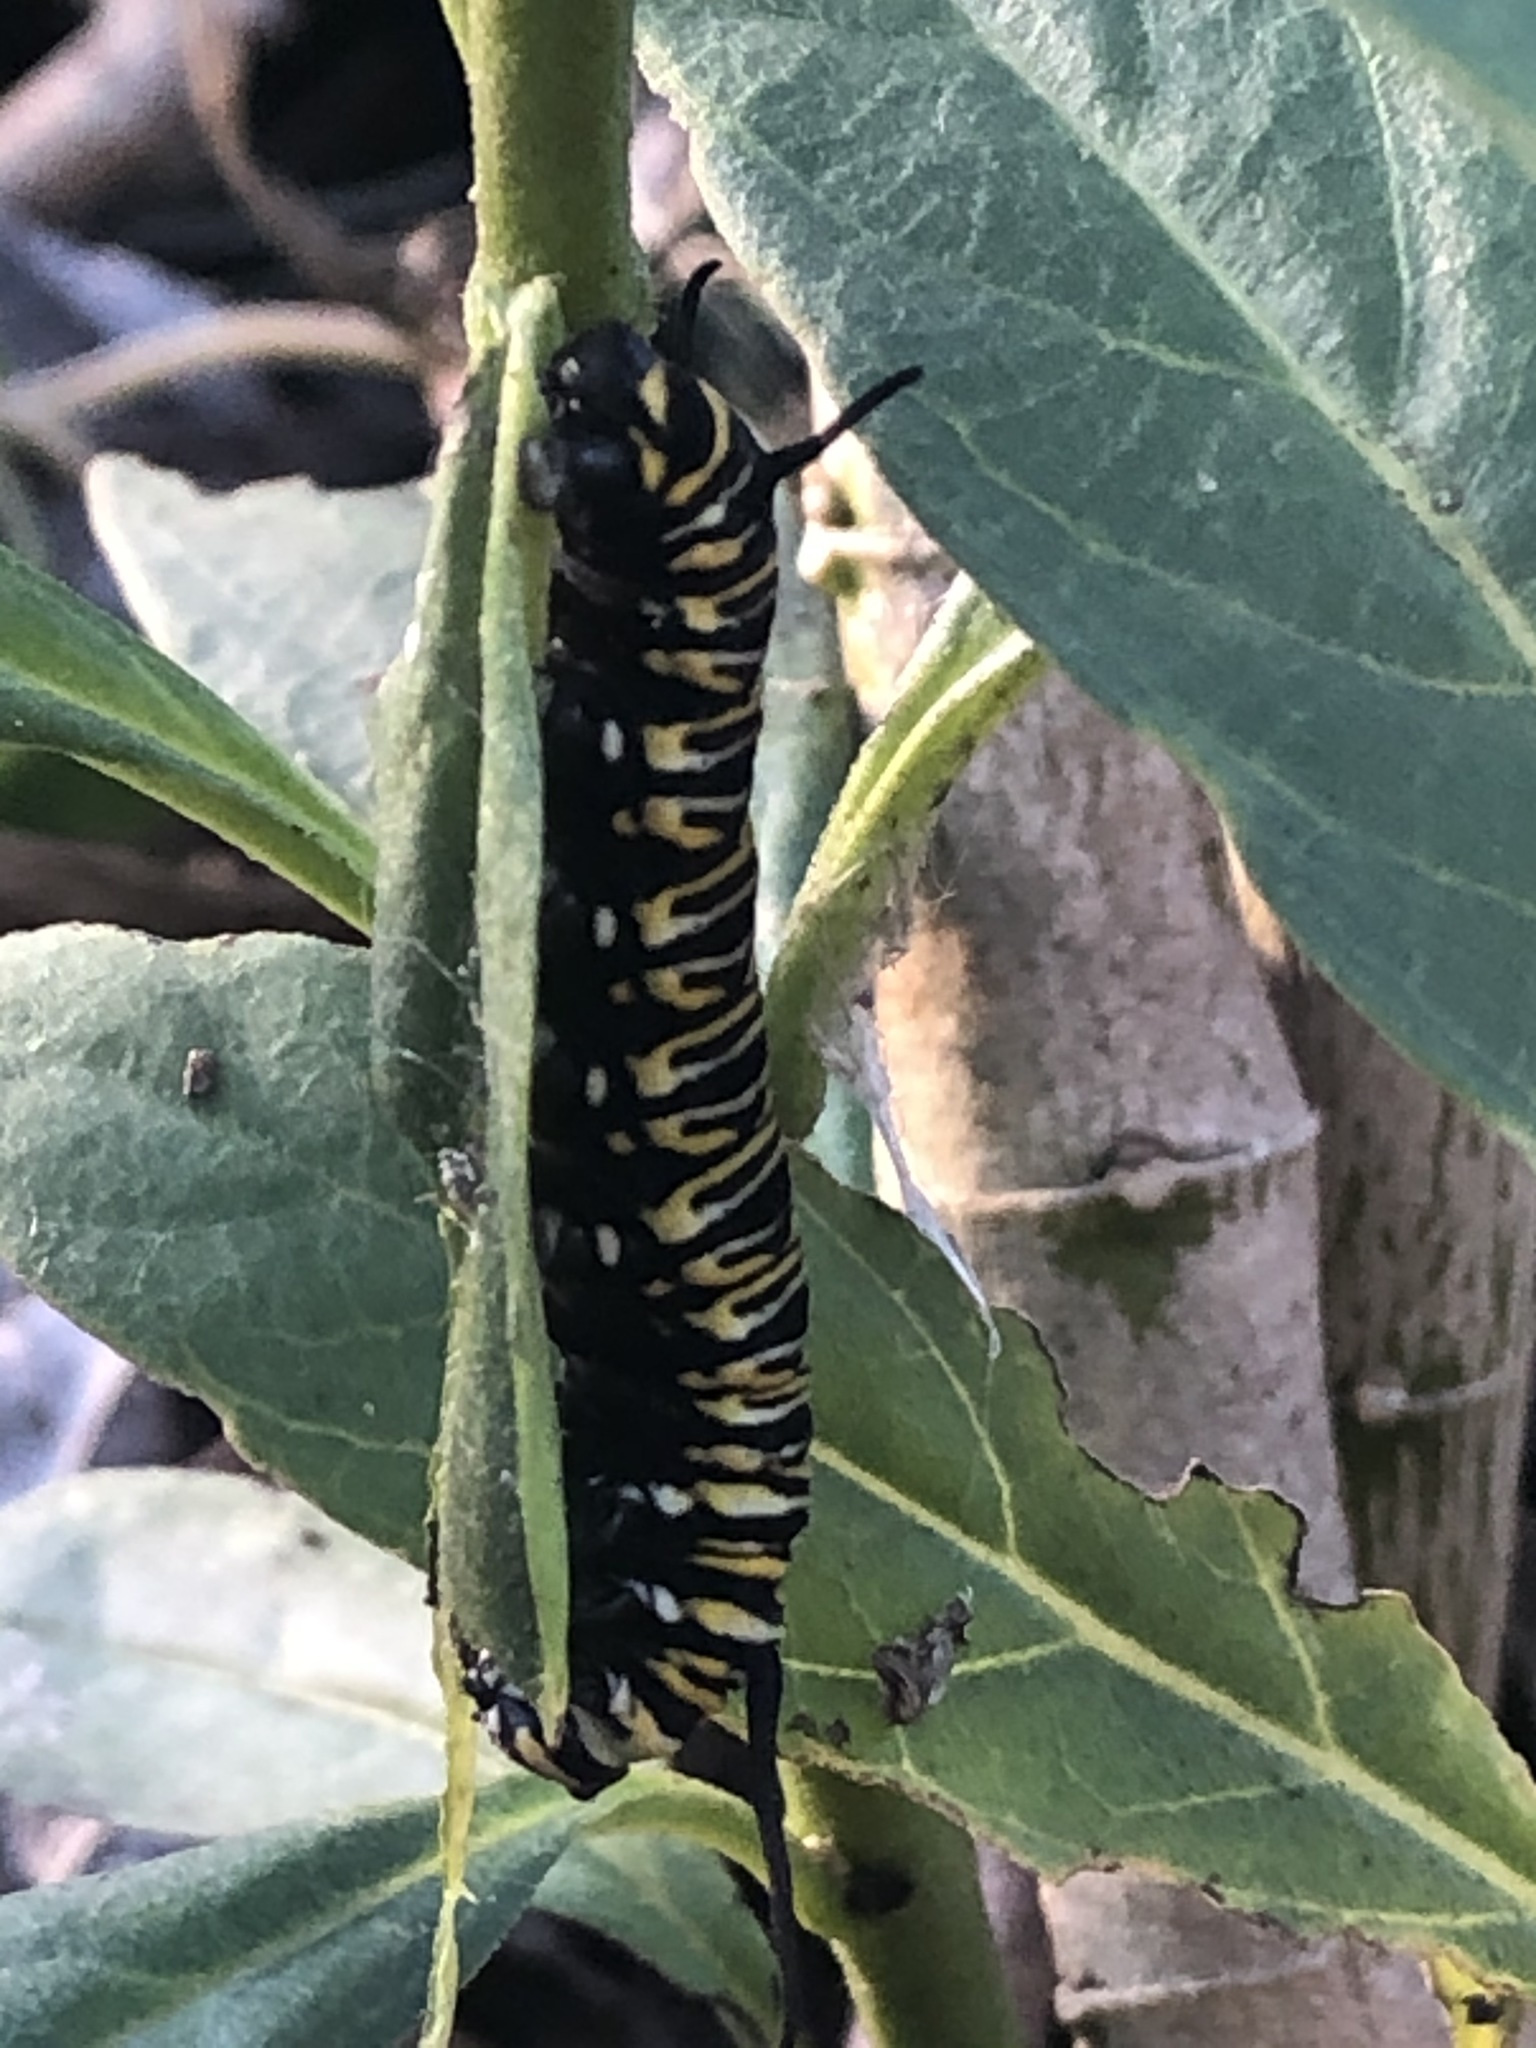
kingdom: Animalia
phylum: Arthropoda
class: Insecta
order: Lepidoptera
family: Nymphalidae
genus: Danaus
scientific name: Danaus plexippus
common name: Monarch
